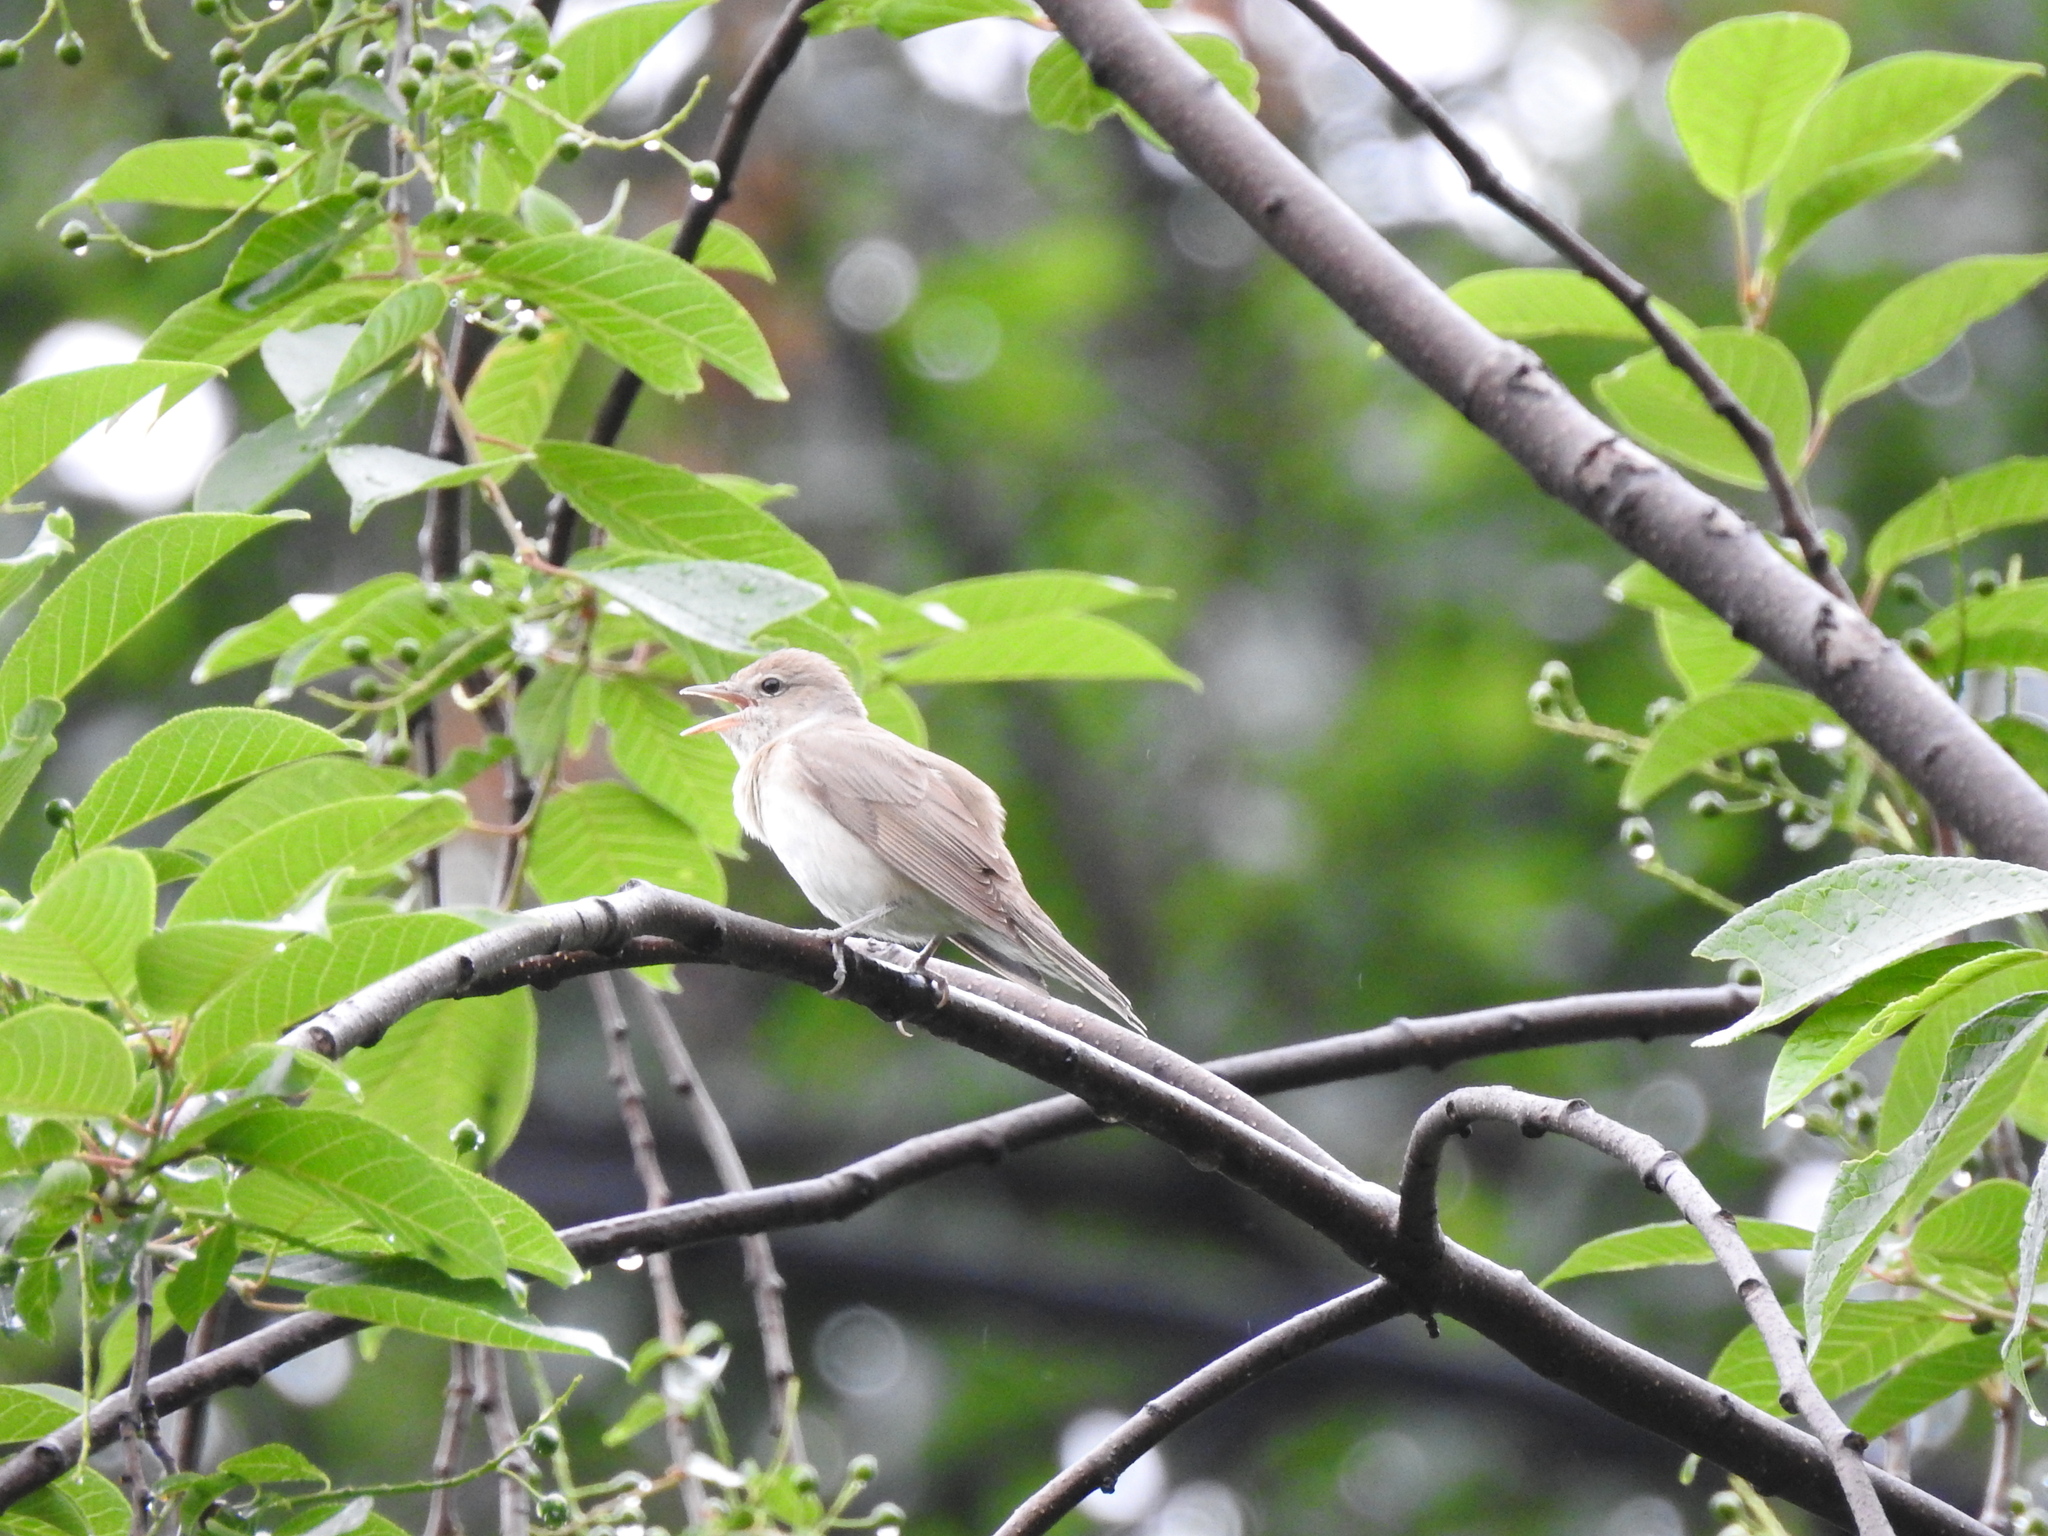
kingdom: Animalia
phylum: Chordata
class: Aves
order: Passeriformes
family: Sylviidae
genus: Sylvia
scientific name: Sylvia borin
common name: Garden warbler
